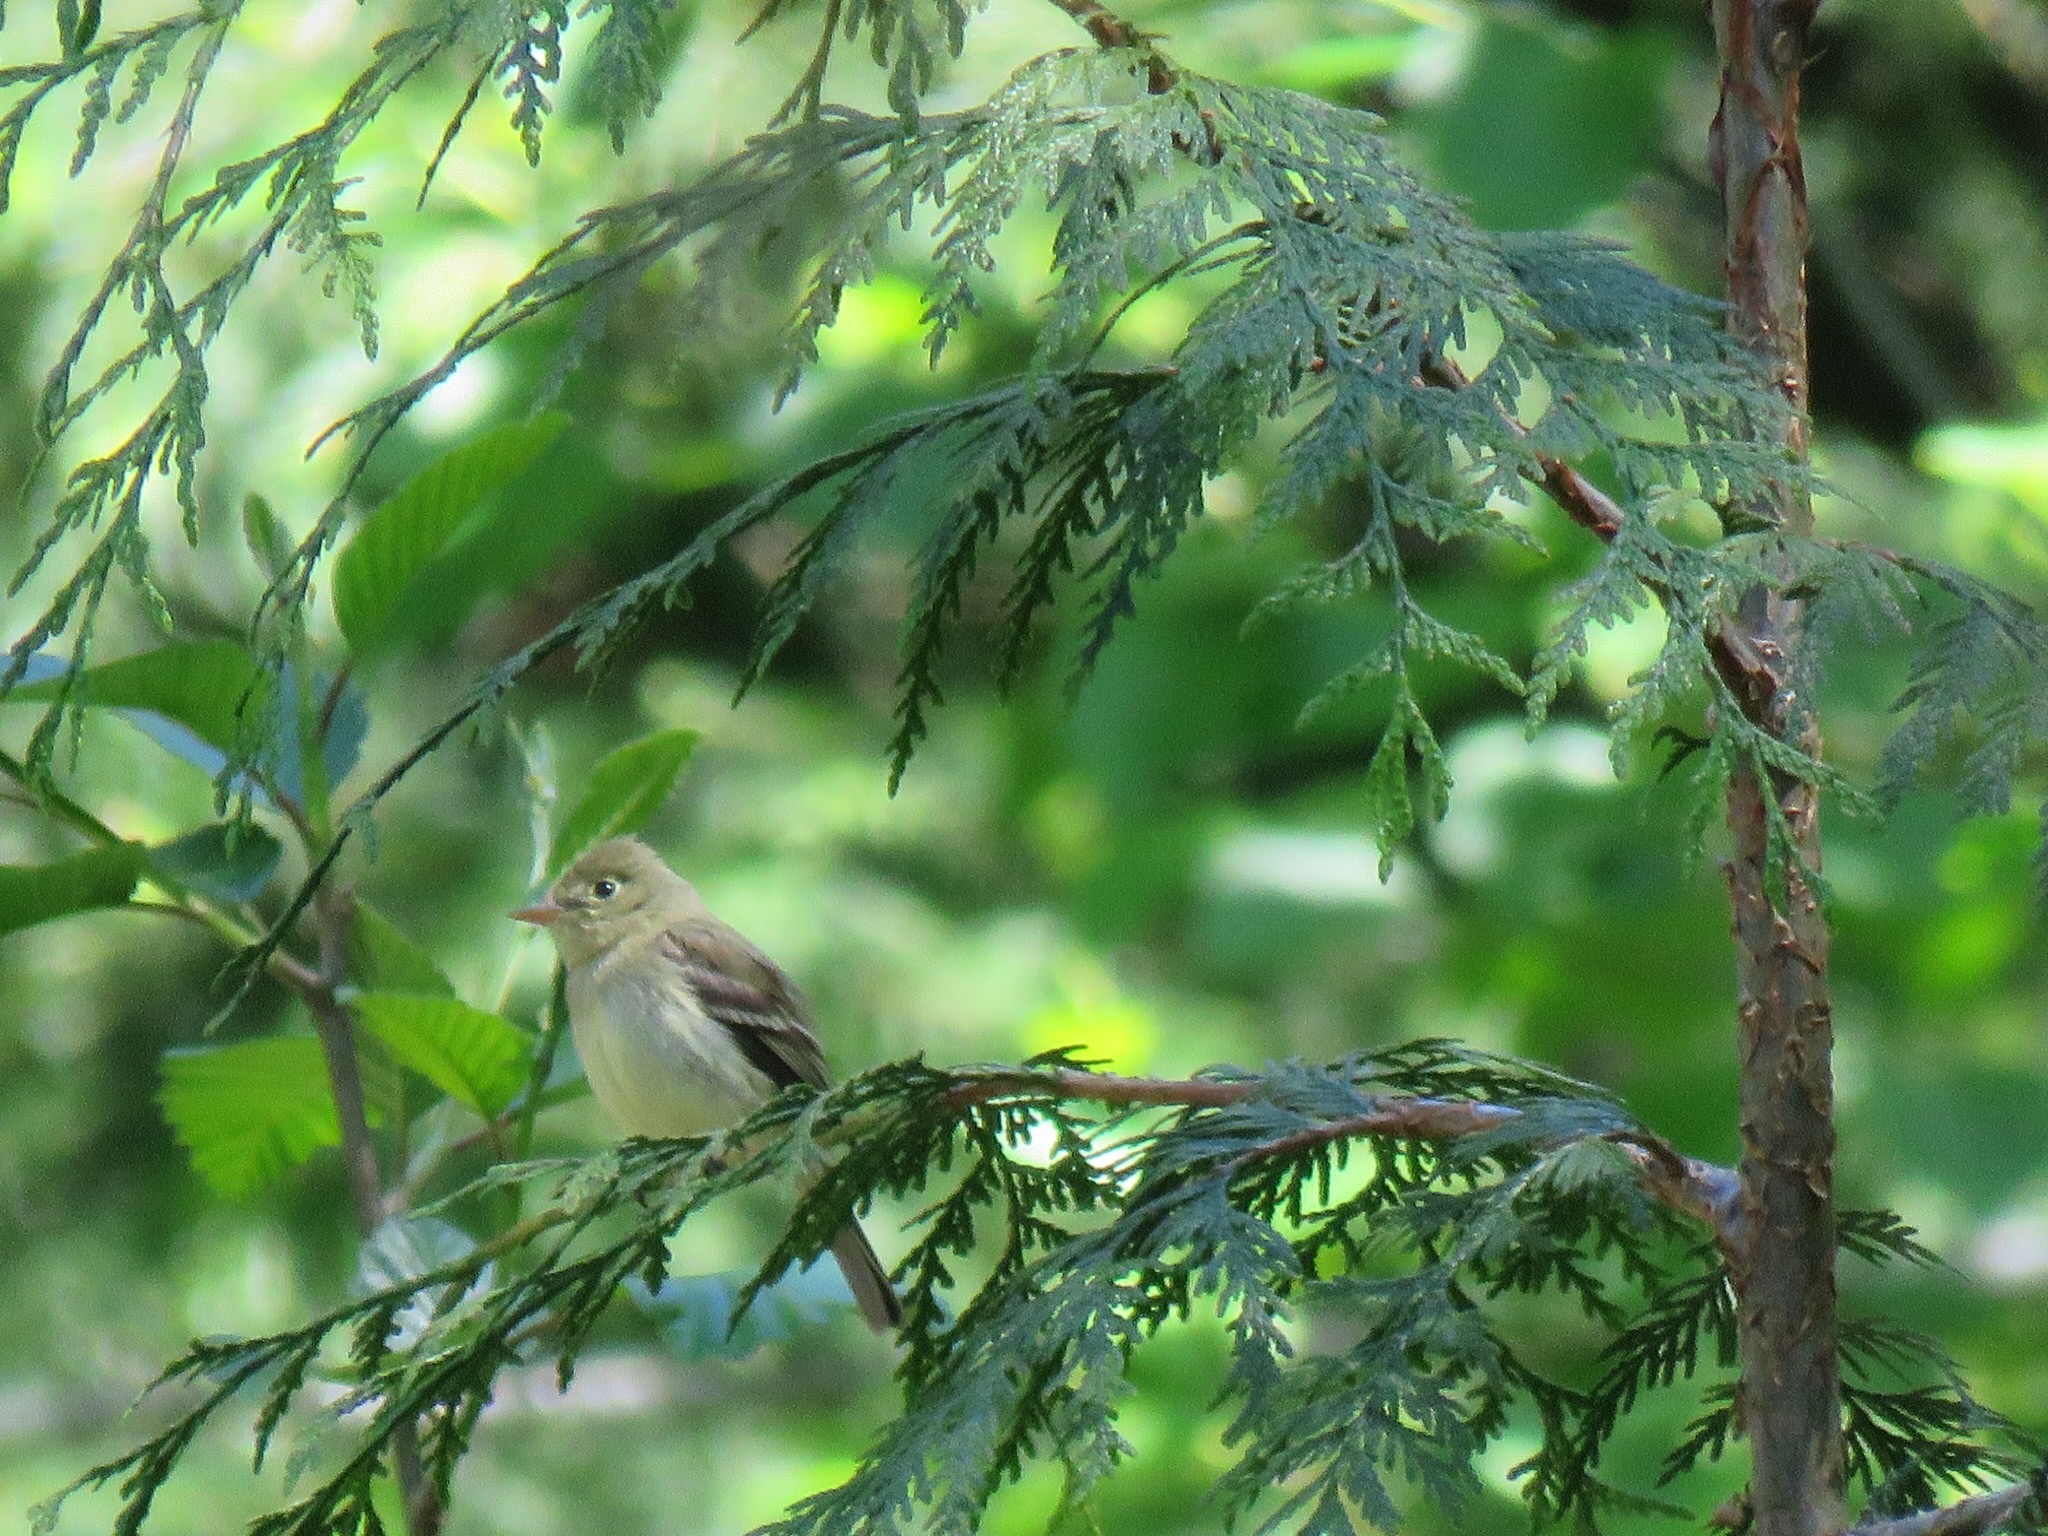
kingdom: Animalia
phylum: Chordata
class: Aves
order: Passeriformes
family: Tyrannidae
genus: Empidonax
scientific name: Empidonax difficilis
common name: Pacific-slope flycatcher
